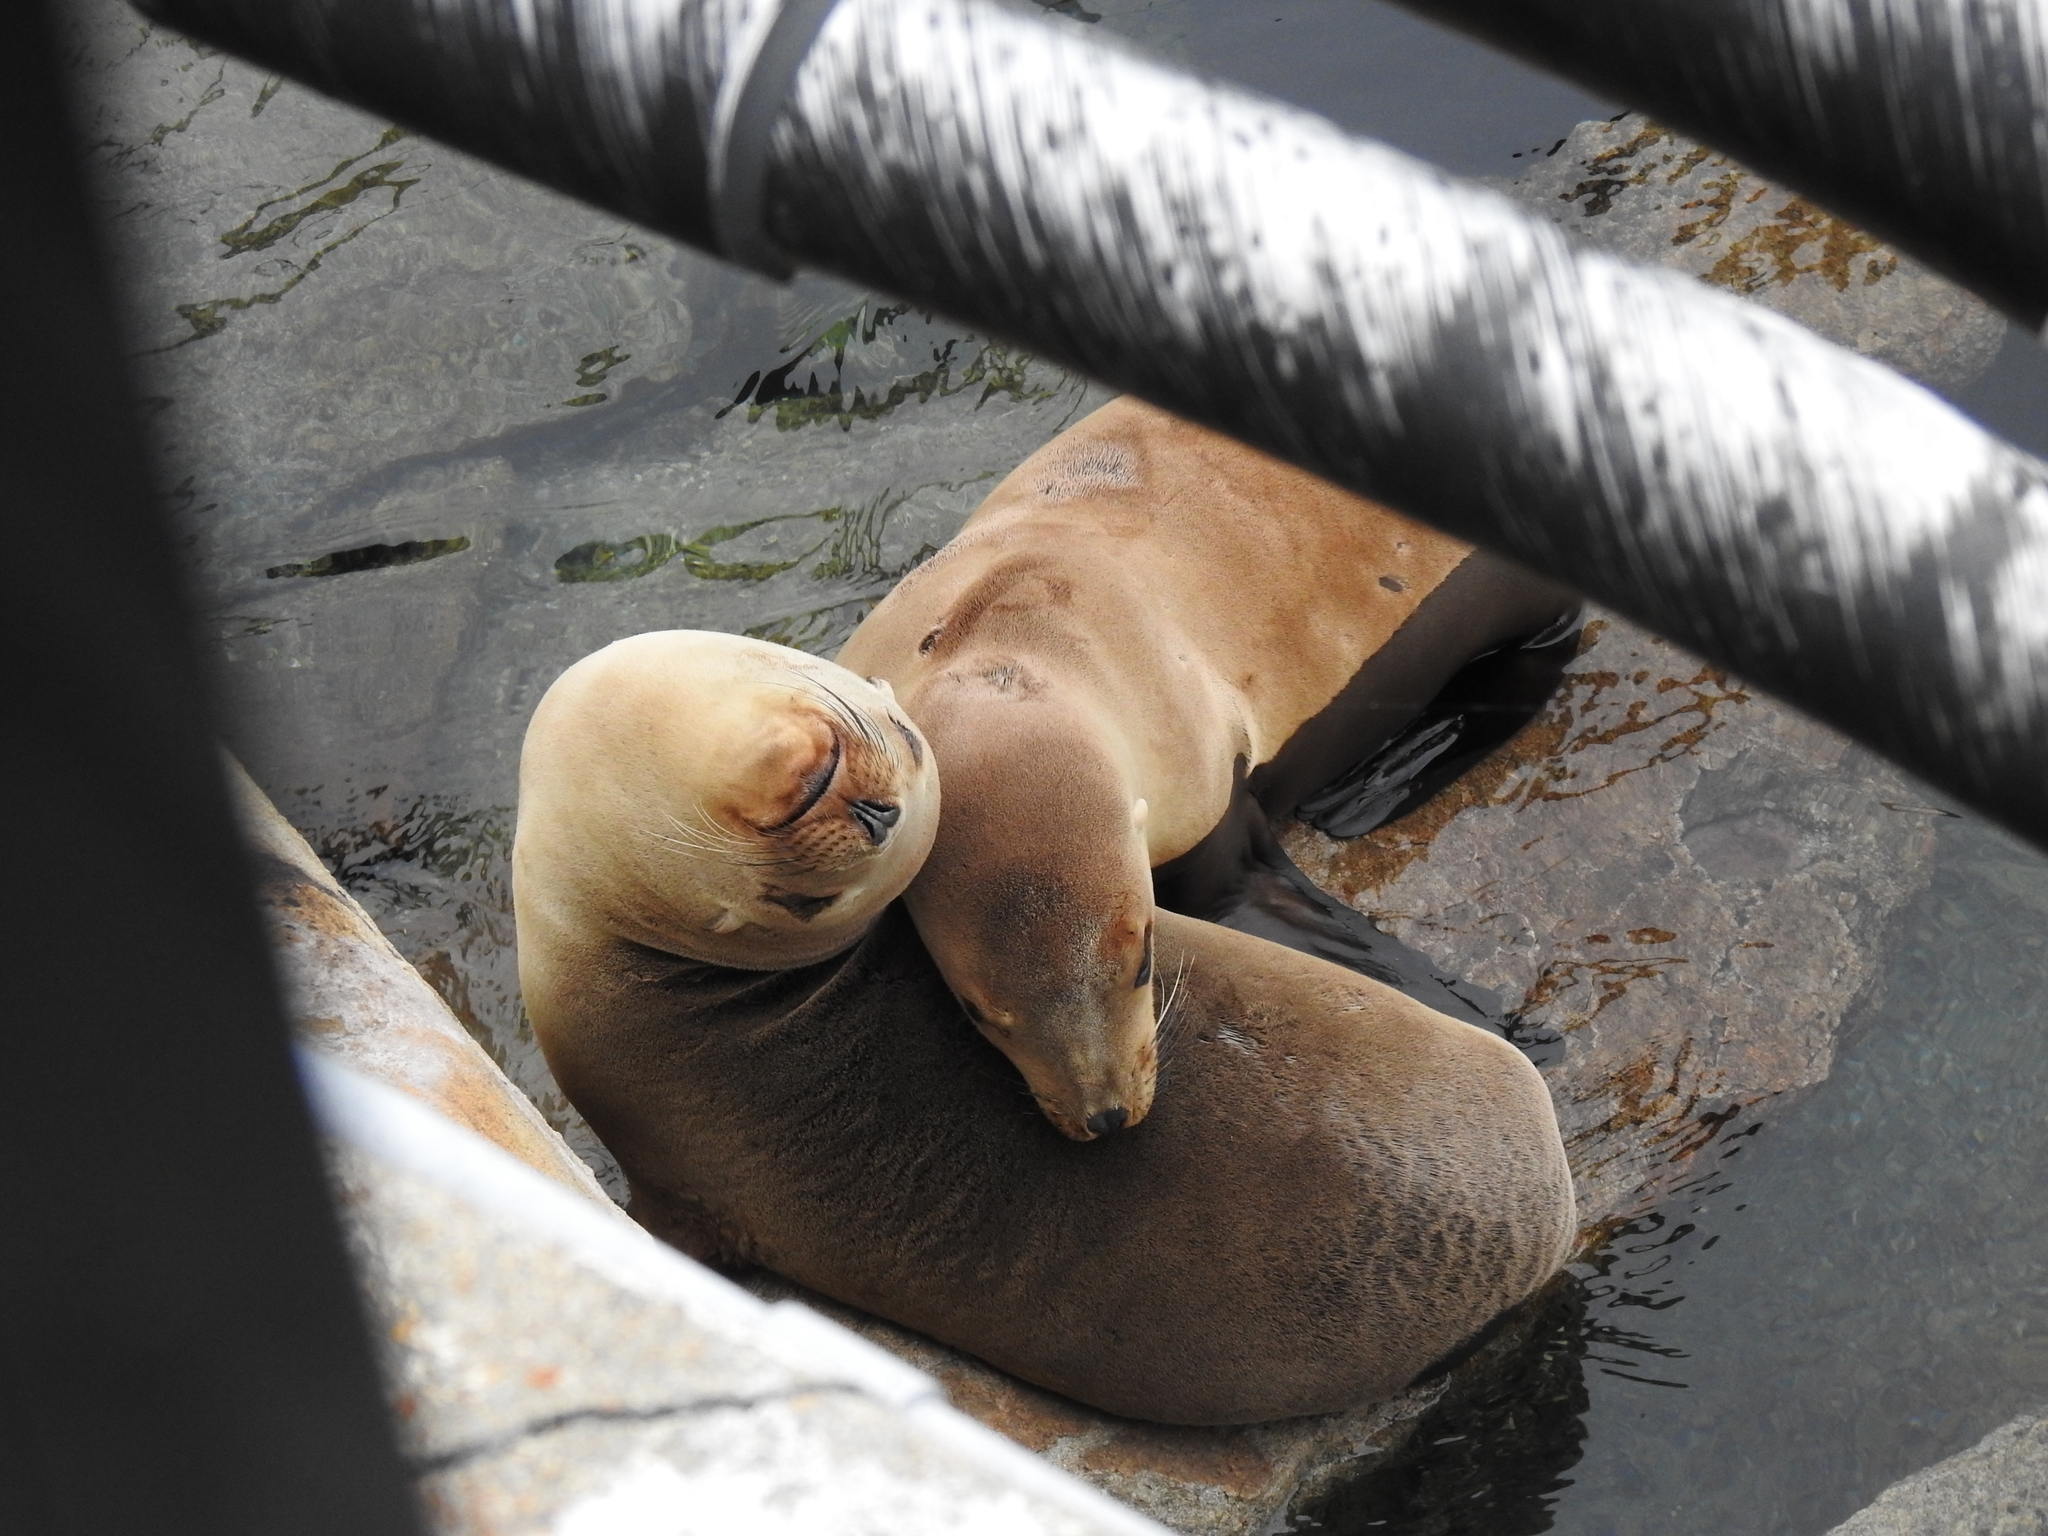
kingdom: Animalia
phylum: Chordata
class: Mammalia
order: Carnivora
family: Otariidae
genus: Zalophus
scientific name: Zalophus californianus
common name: California sea lion
